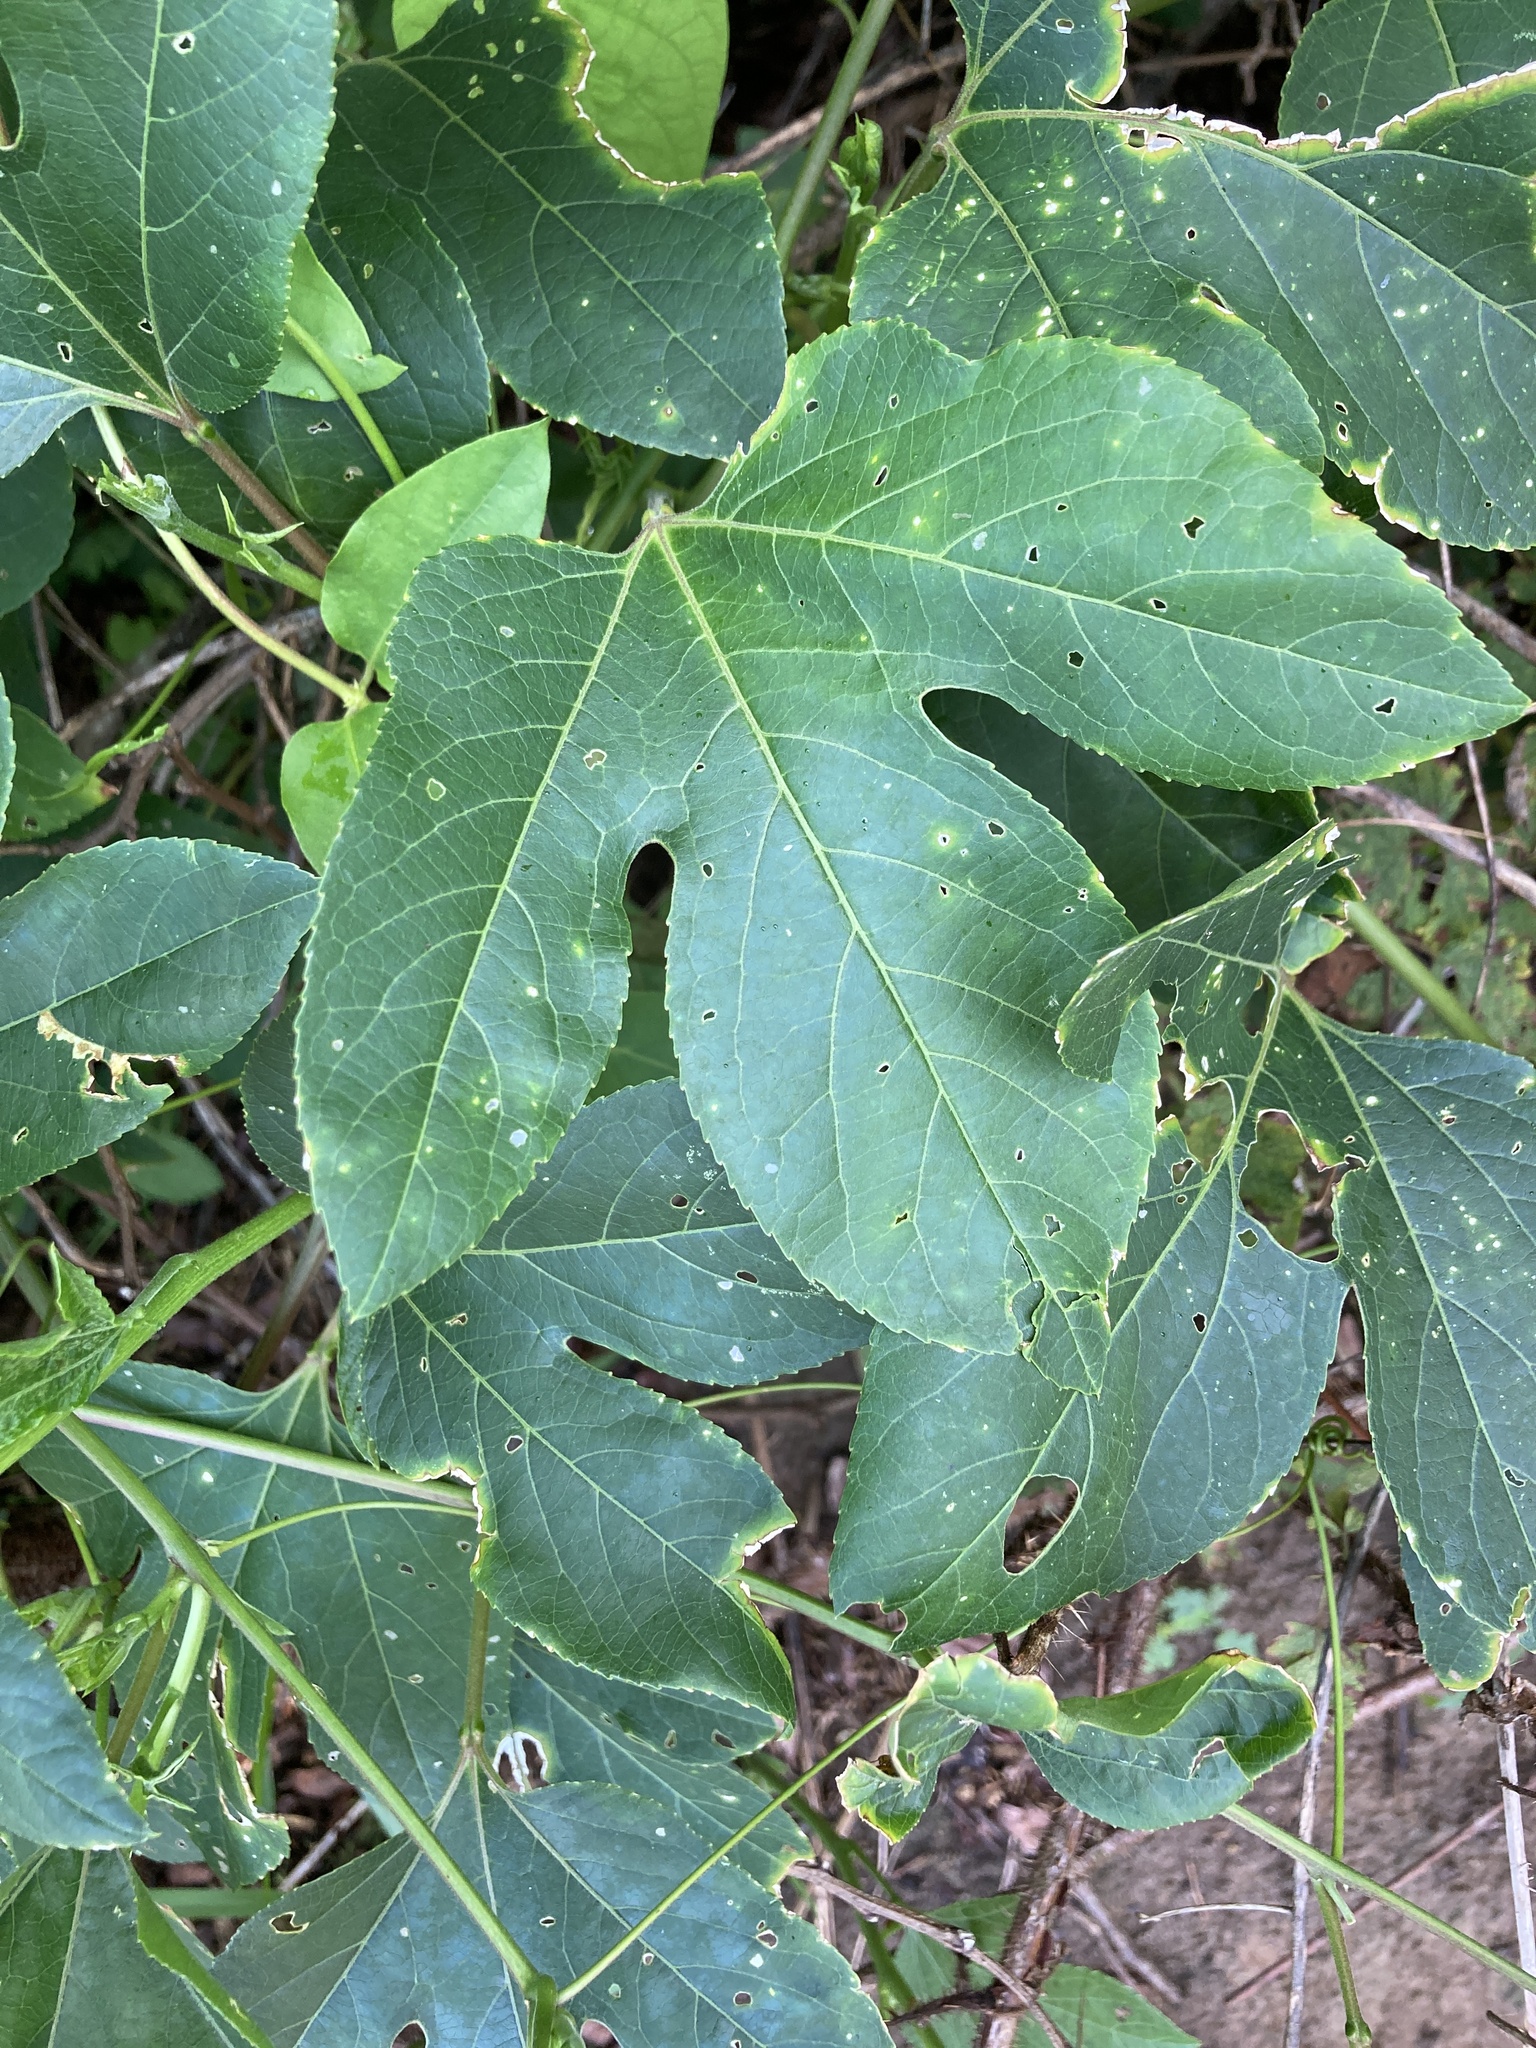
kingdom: Plantae
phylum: Tracheophyta
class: Magnoliopsida
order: Malpighiales
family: Passifloraceae
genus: Passiflora
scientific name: Passiflora incarnata
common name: Apricot-vine
